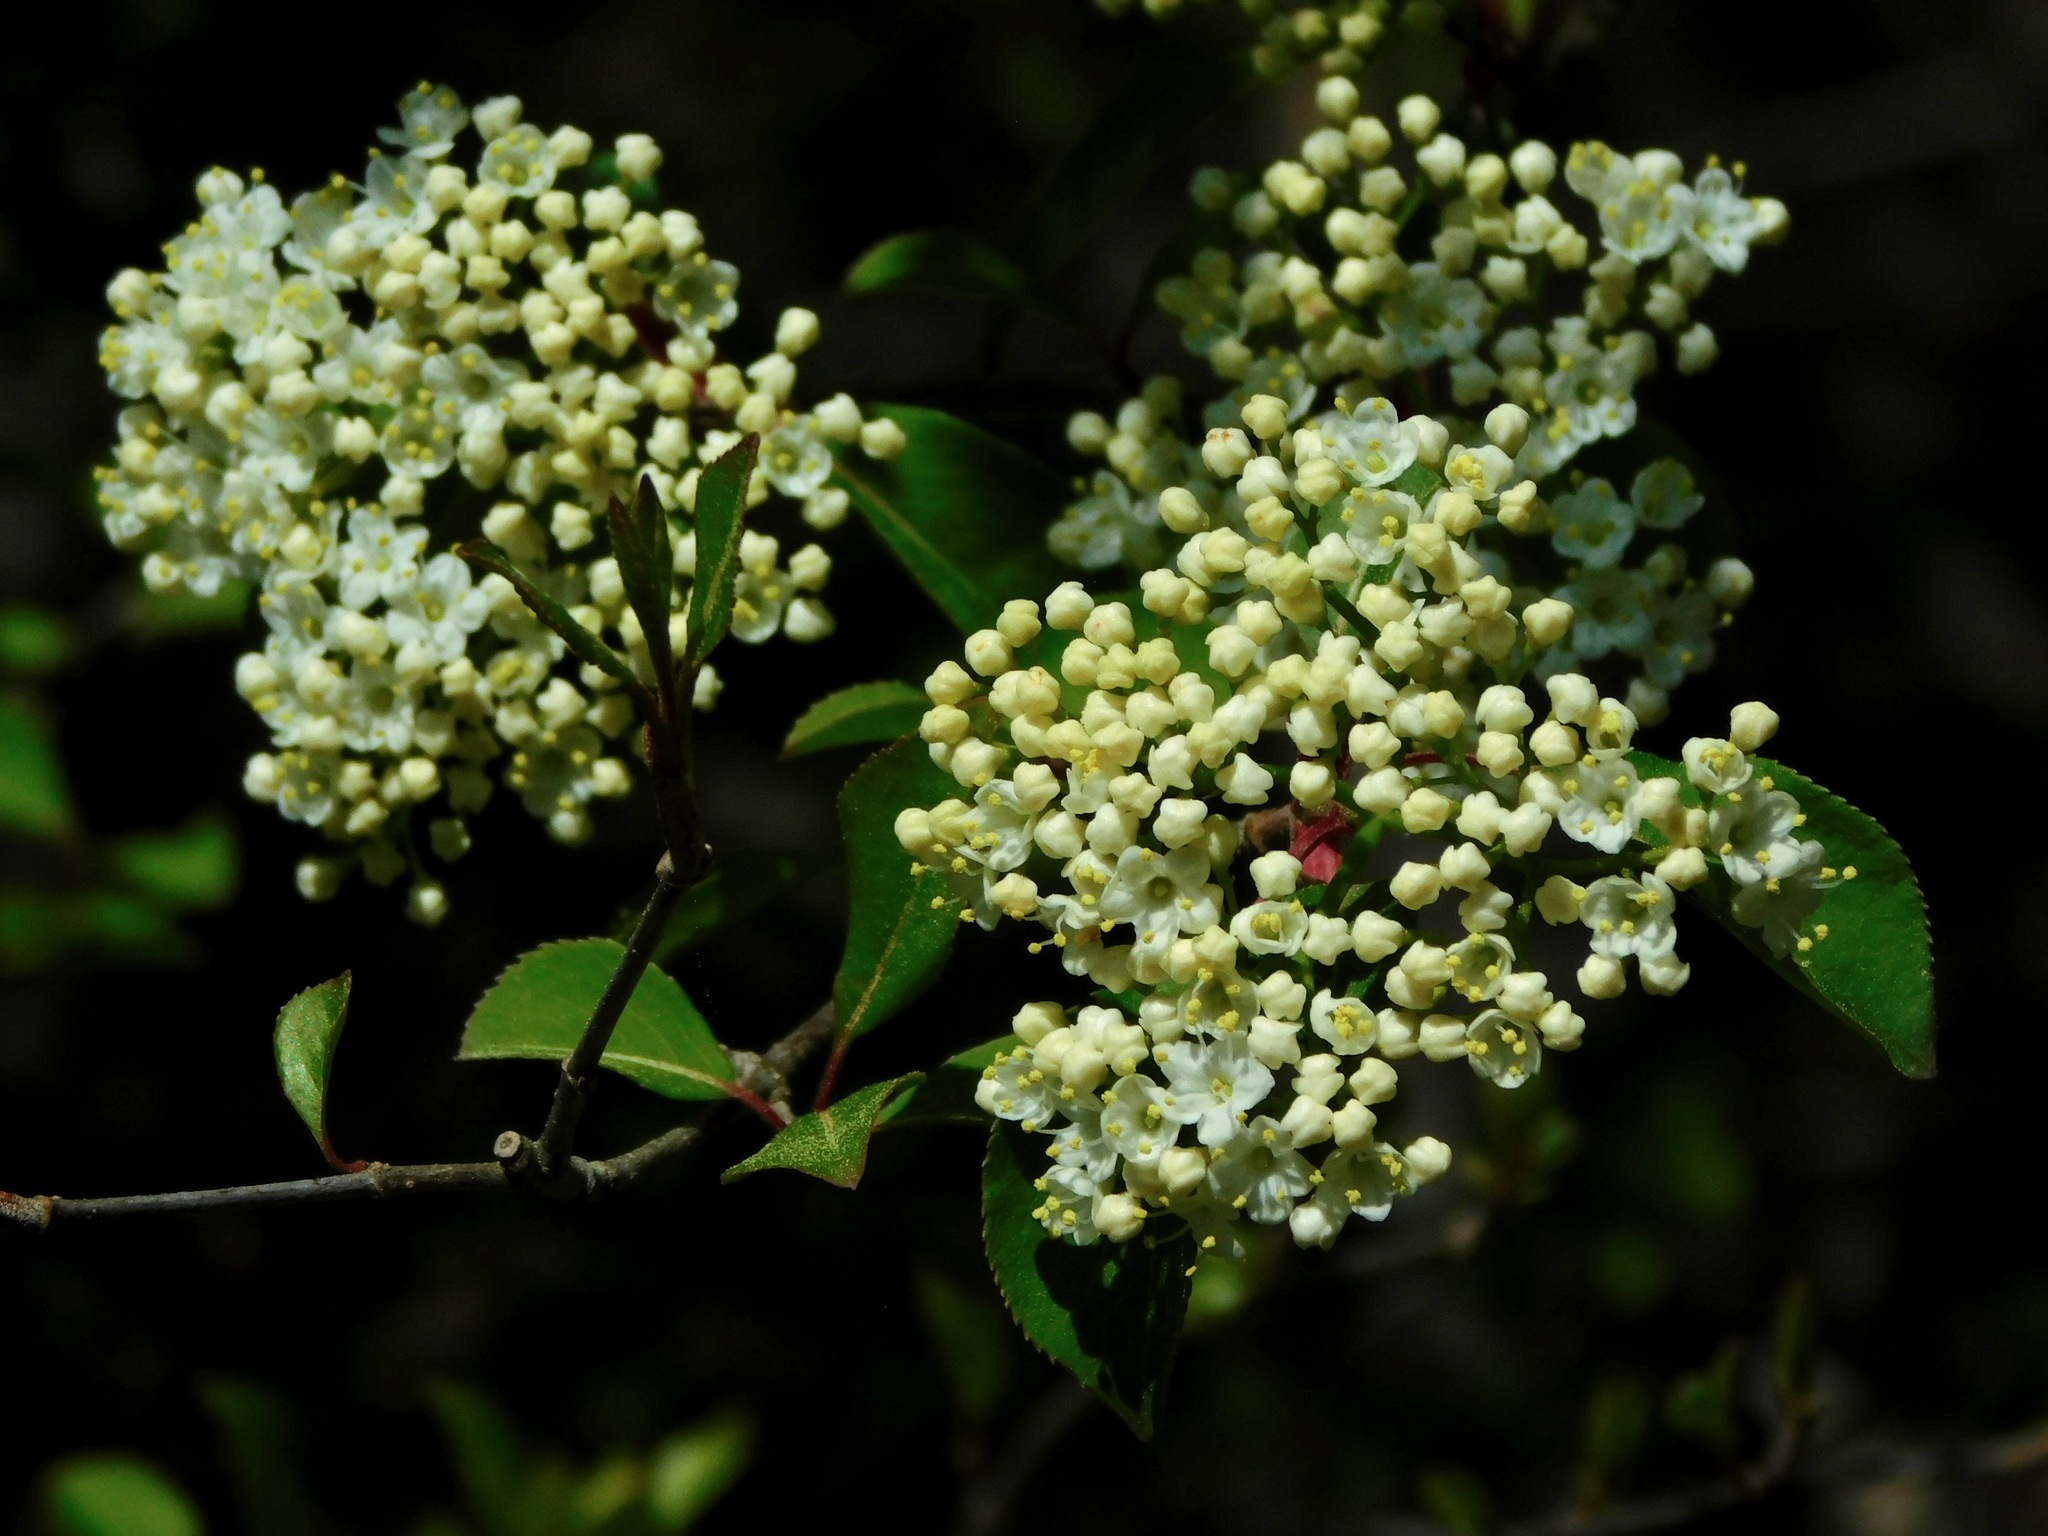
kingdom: Plantae
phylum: Tracheophyta
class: Magnoliopsida
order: Dipsacales
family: Viburnaceae
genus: Viburnum
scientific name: Viburnum prunifolium
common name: Black haw
